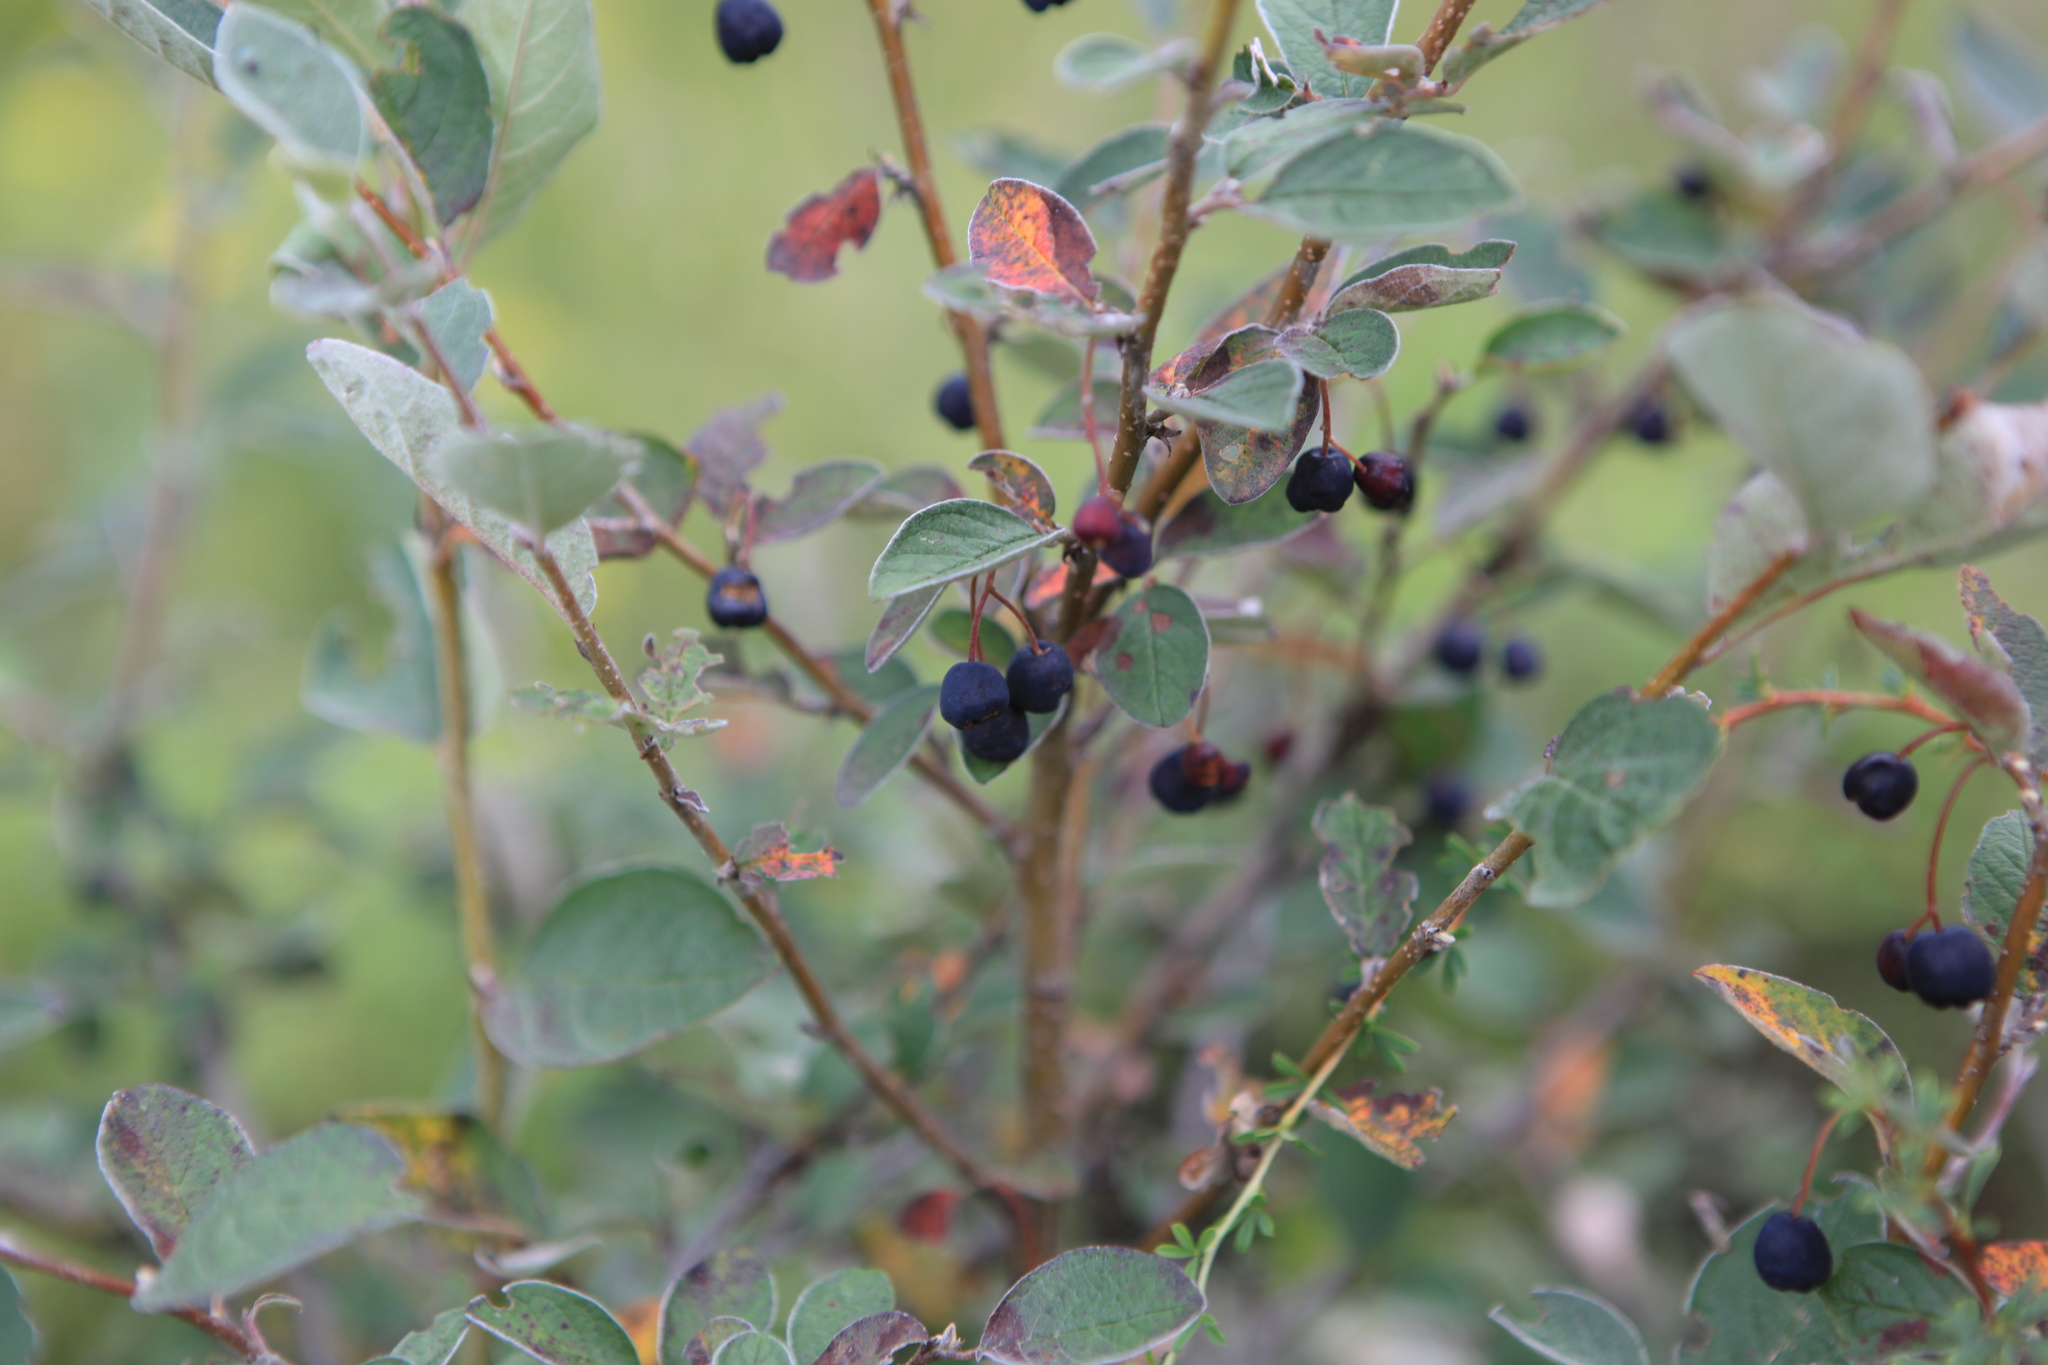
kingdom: Plantae
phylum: Tracheophyta
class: Magnoliopsida
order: Rosales
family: Rosaceae
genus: Cotoneaster
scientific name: Cotoneaster melanocarpus
